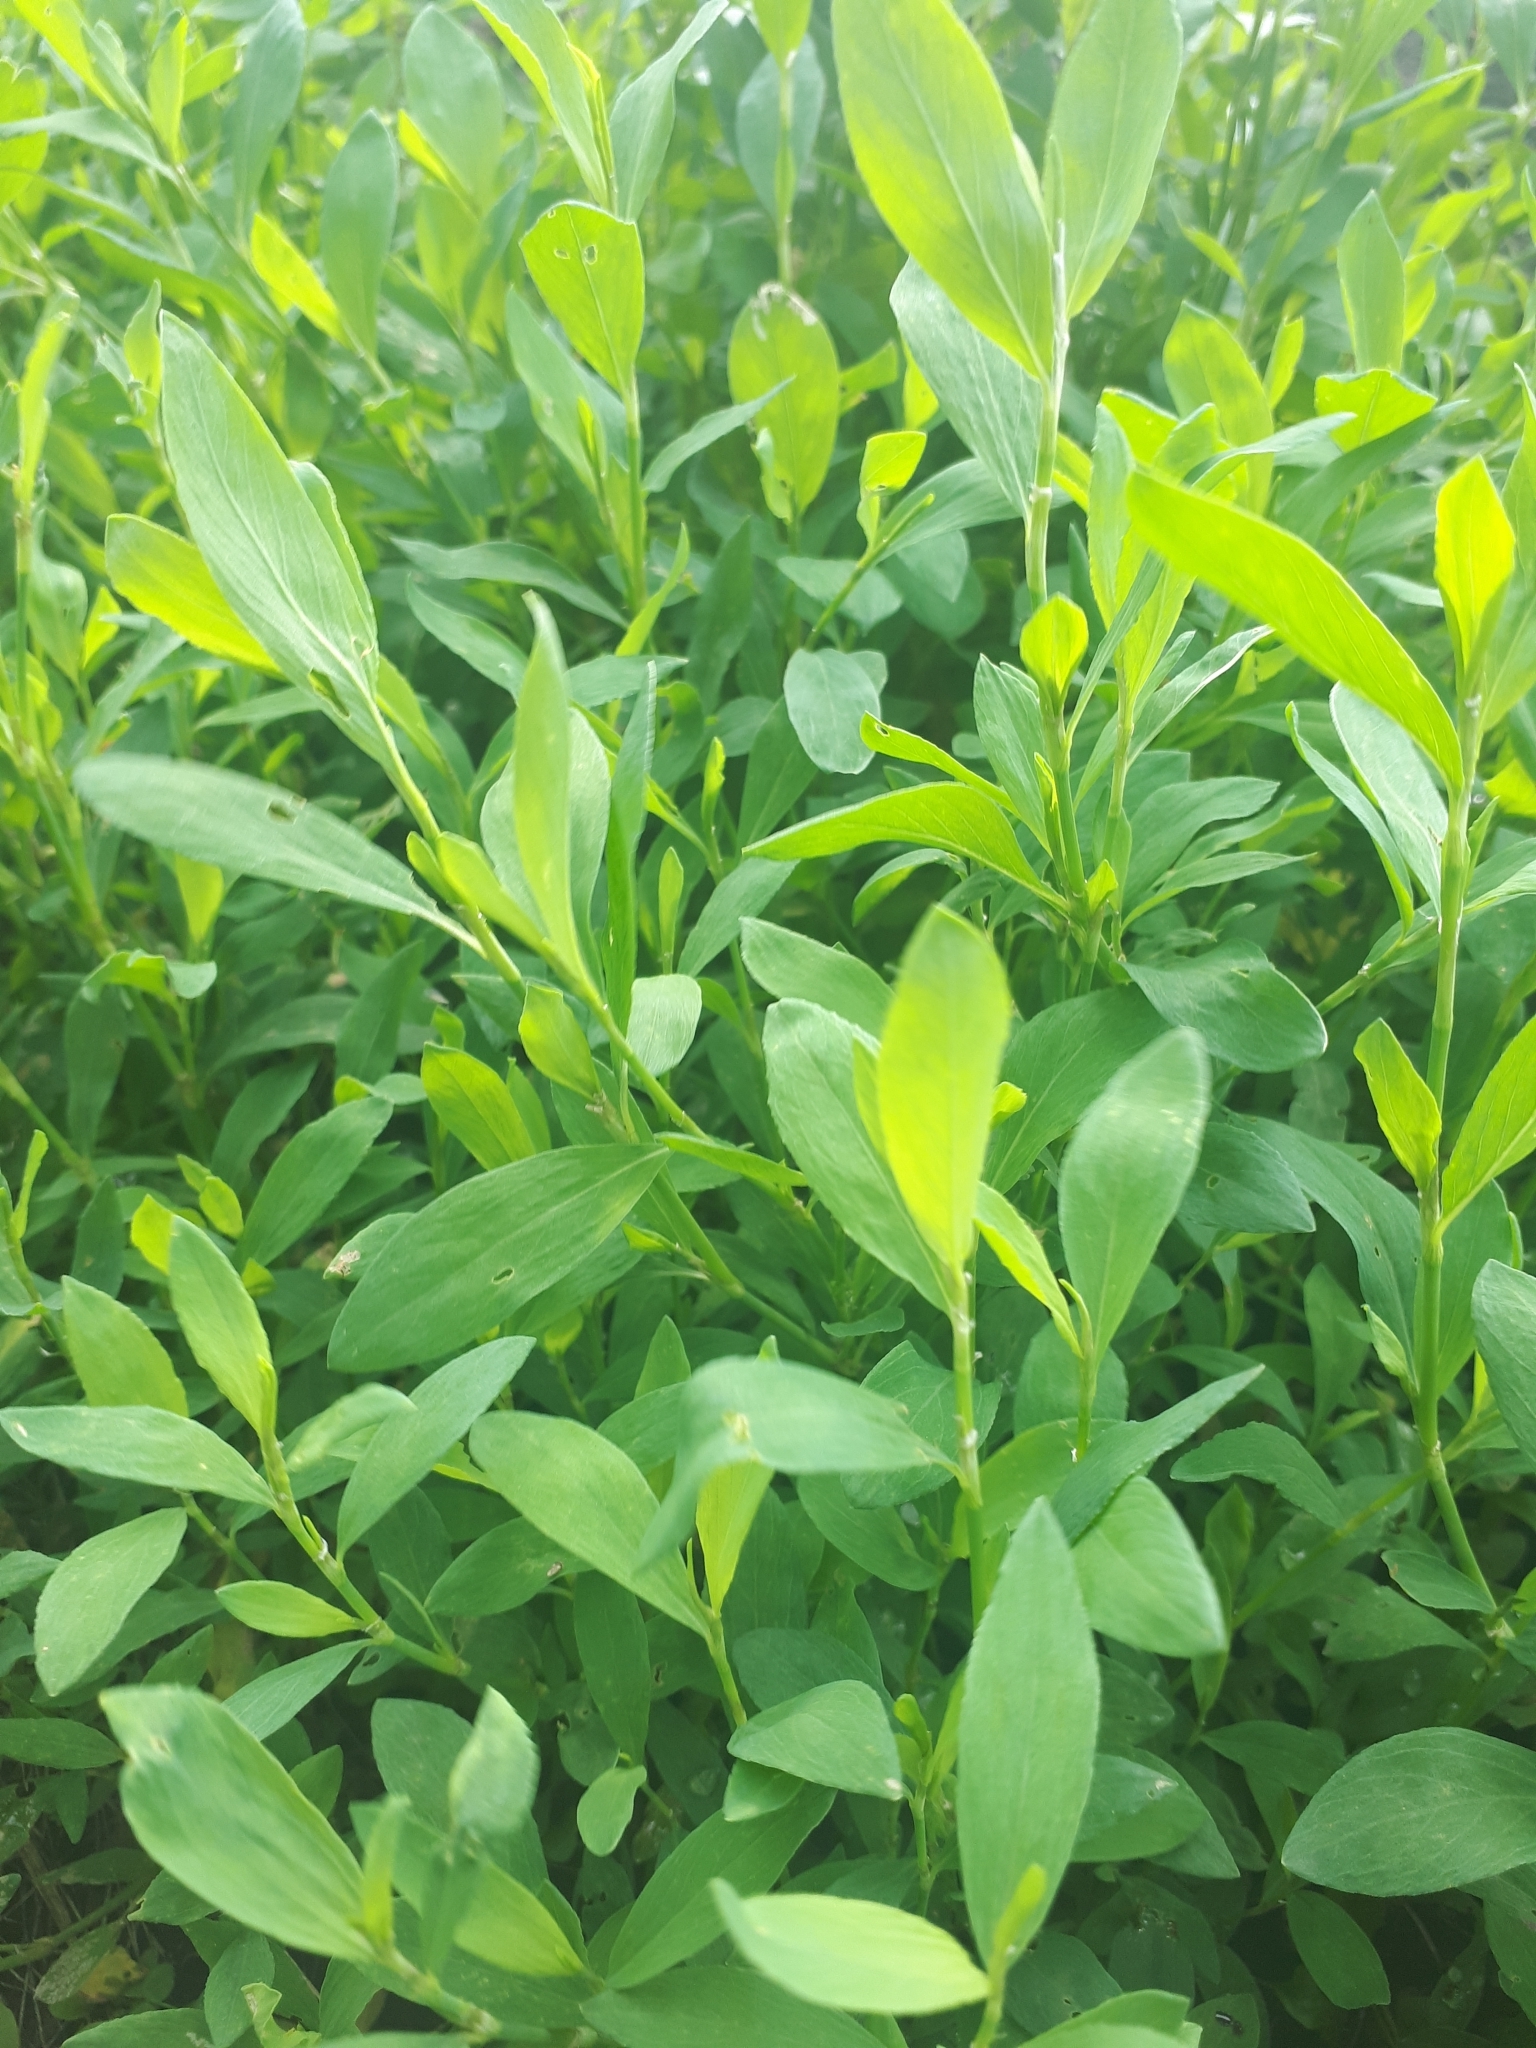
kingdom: Plantae
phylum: Tracheophyta
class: Magnoliopsida
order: Caryophyllales
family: Polygonaceae
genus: Polygonum
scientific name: Polygonum aviculare
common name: Prostrate knotweed
